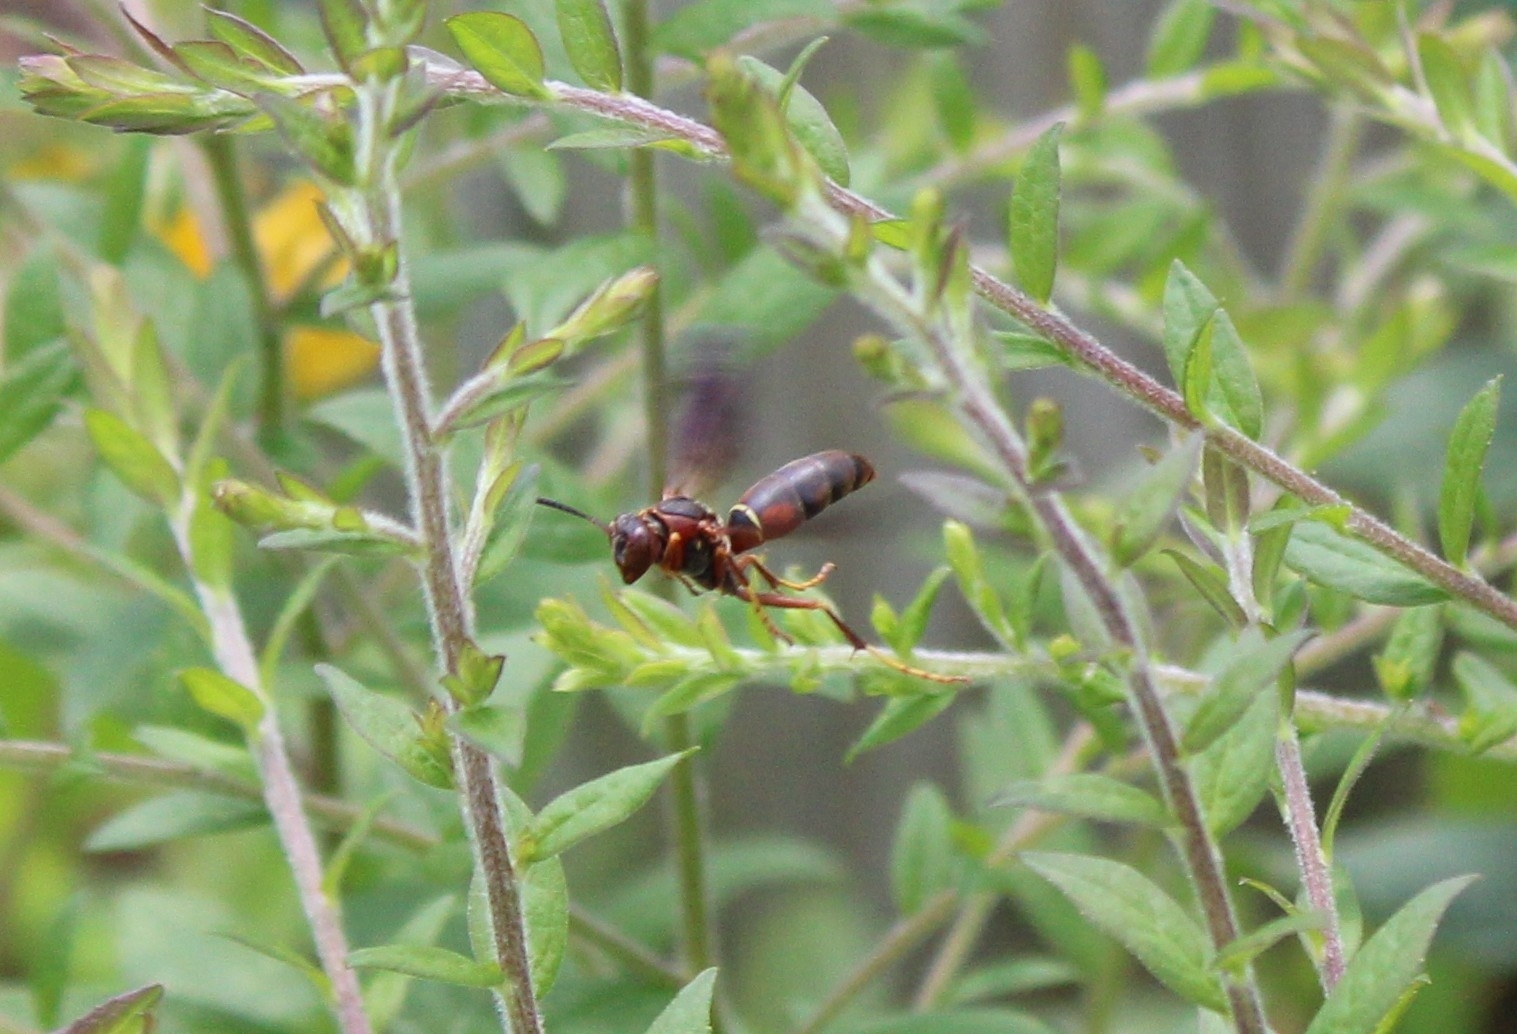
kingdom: Animalia
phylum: Arthropoda
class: Insecta
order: Hymenoptera
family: Eumenidae
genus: Polistes
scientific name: Polistes fuscatus
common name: Dark paper wasp
